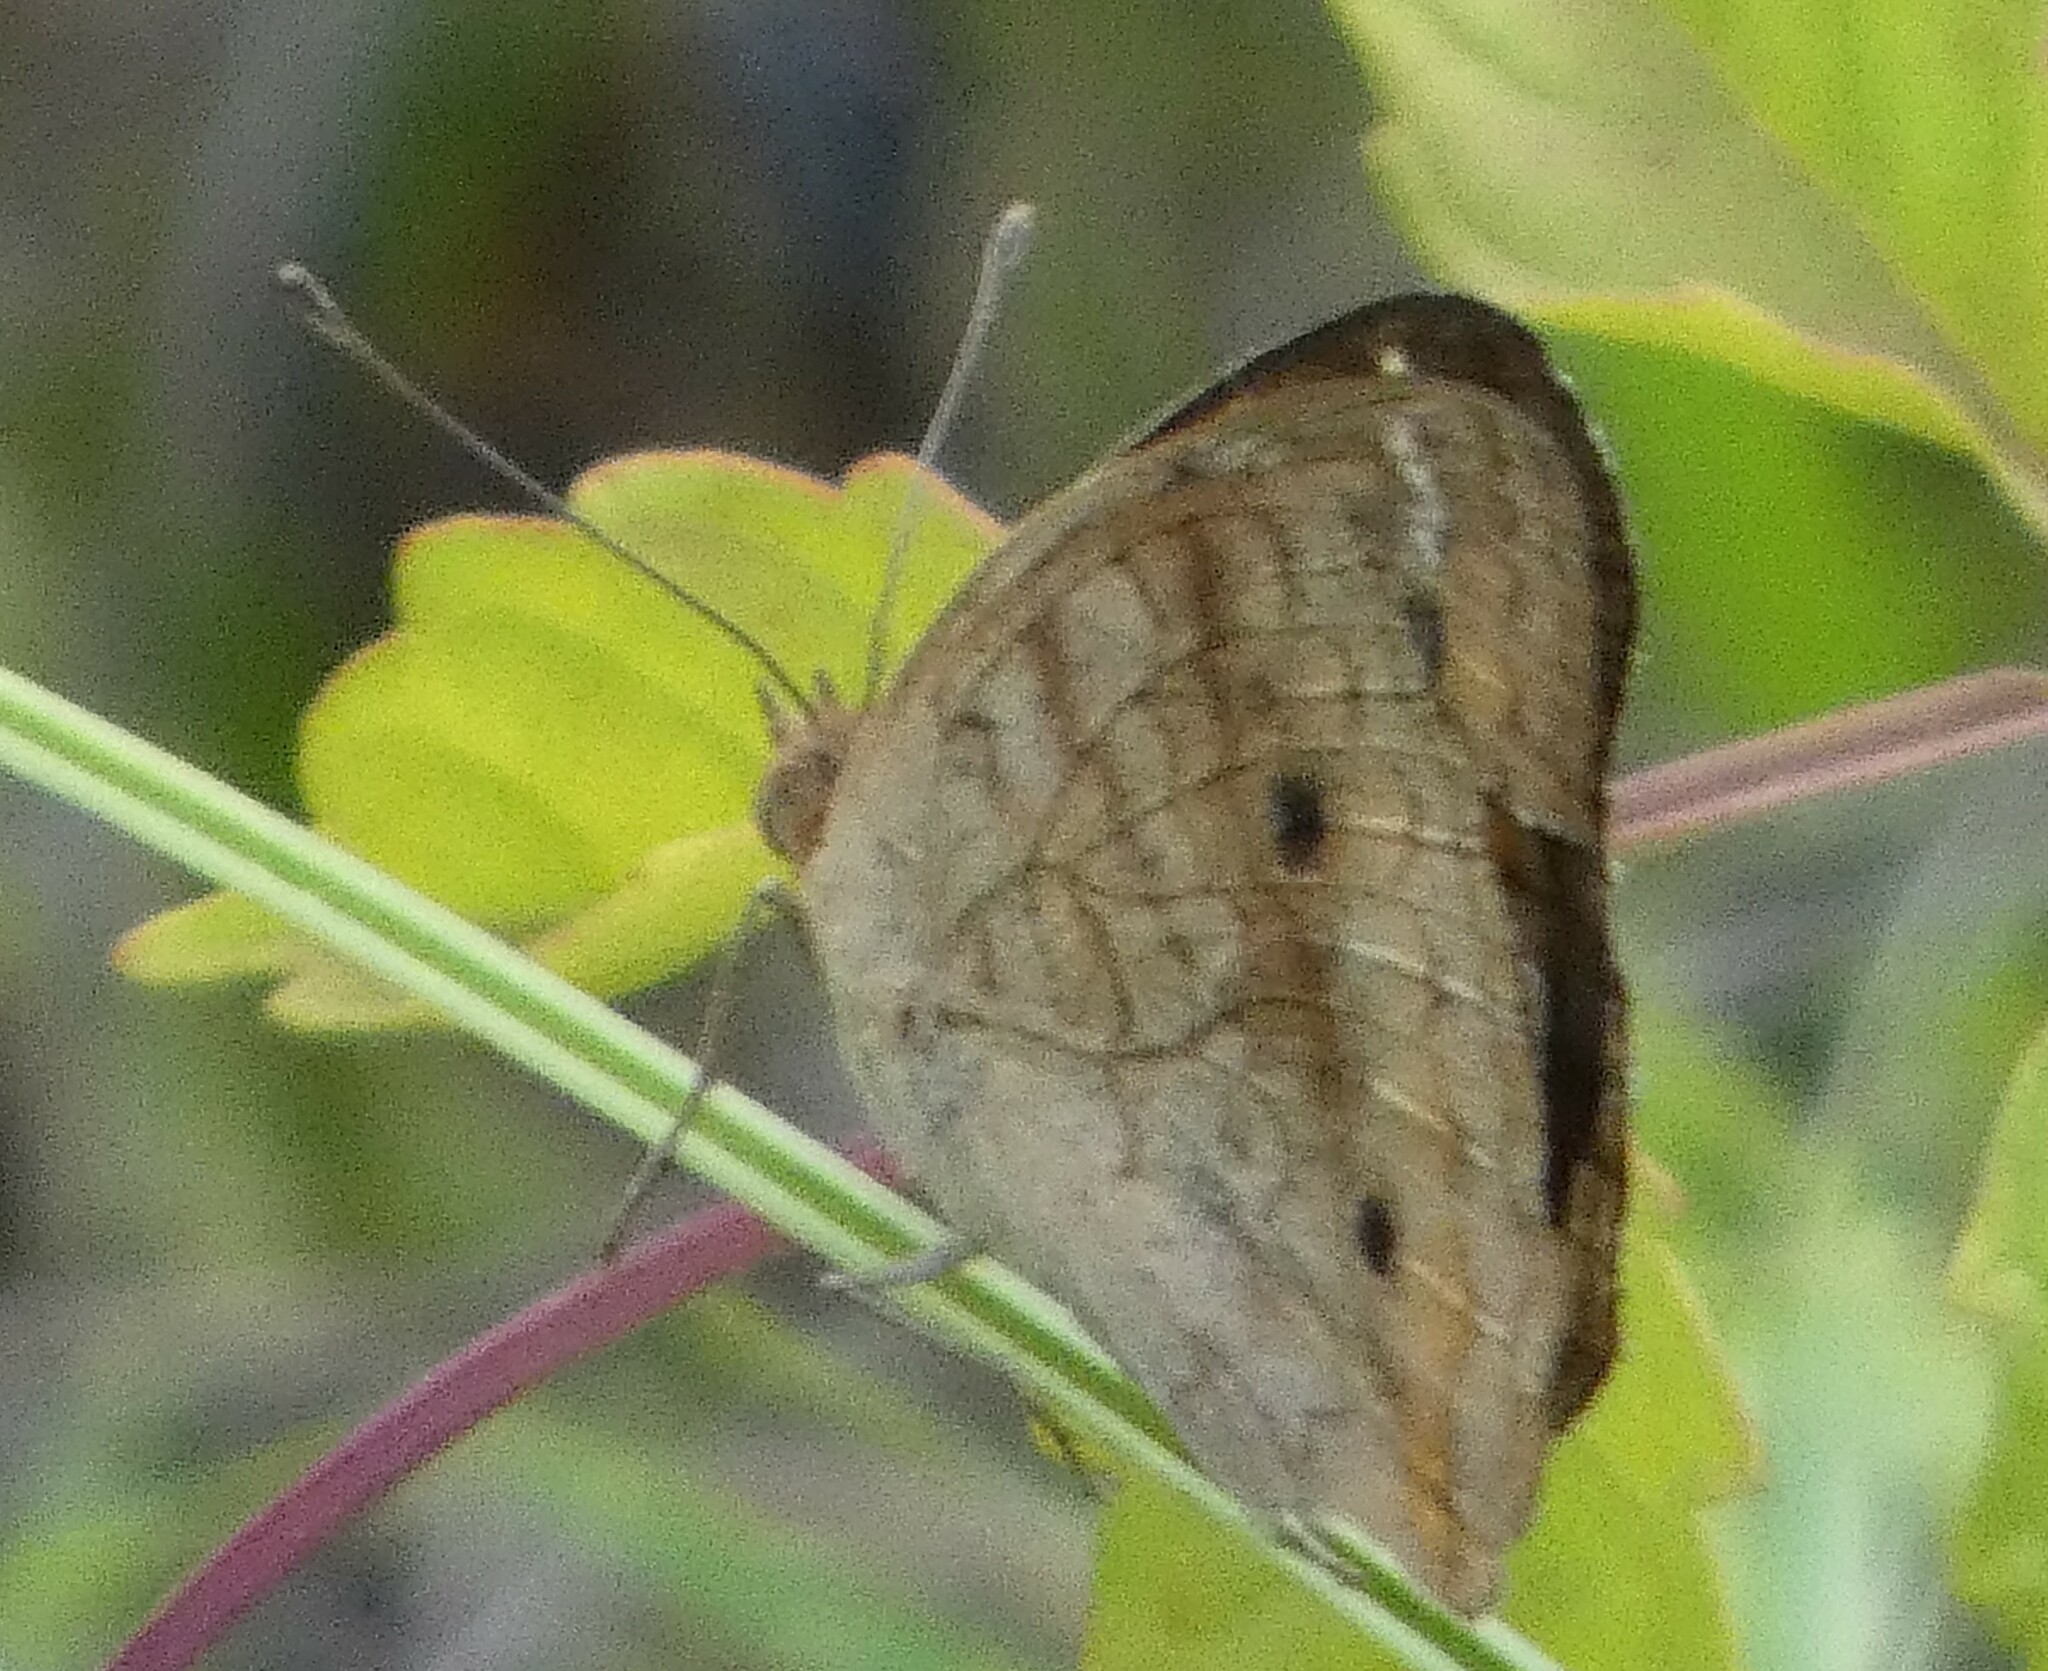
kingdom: Animalia
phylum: Arthropoda
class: Insecta
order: Lepidoptera
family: Nymphalidae
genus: Junonia
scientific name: Junonia coenia
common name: Common buckeye
